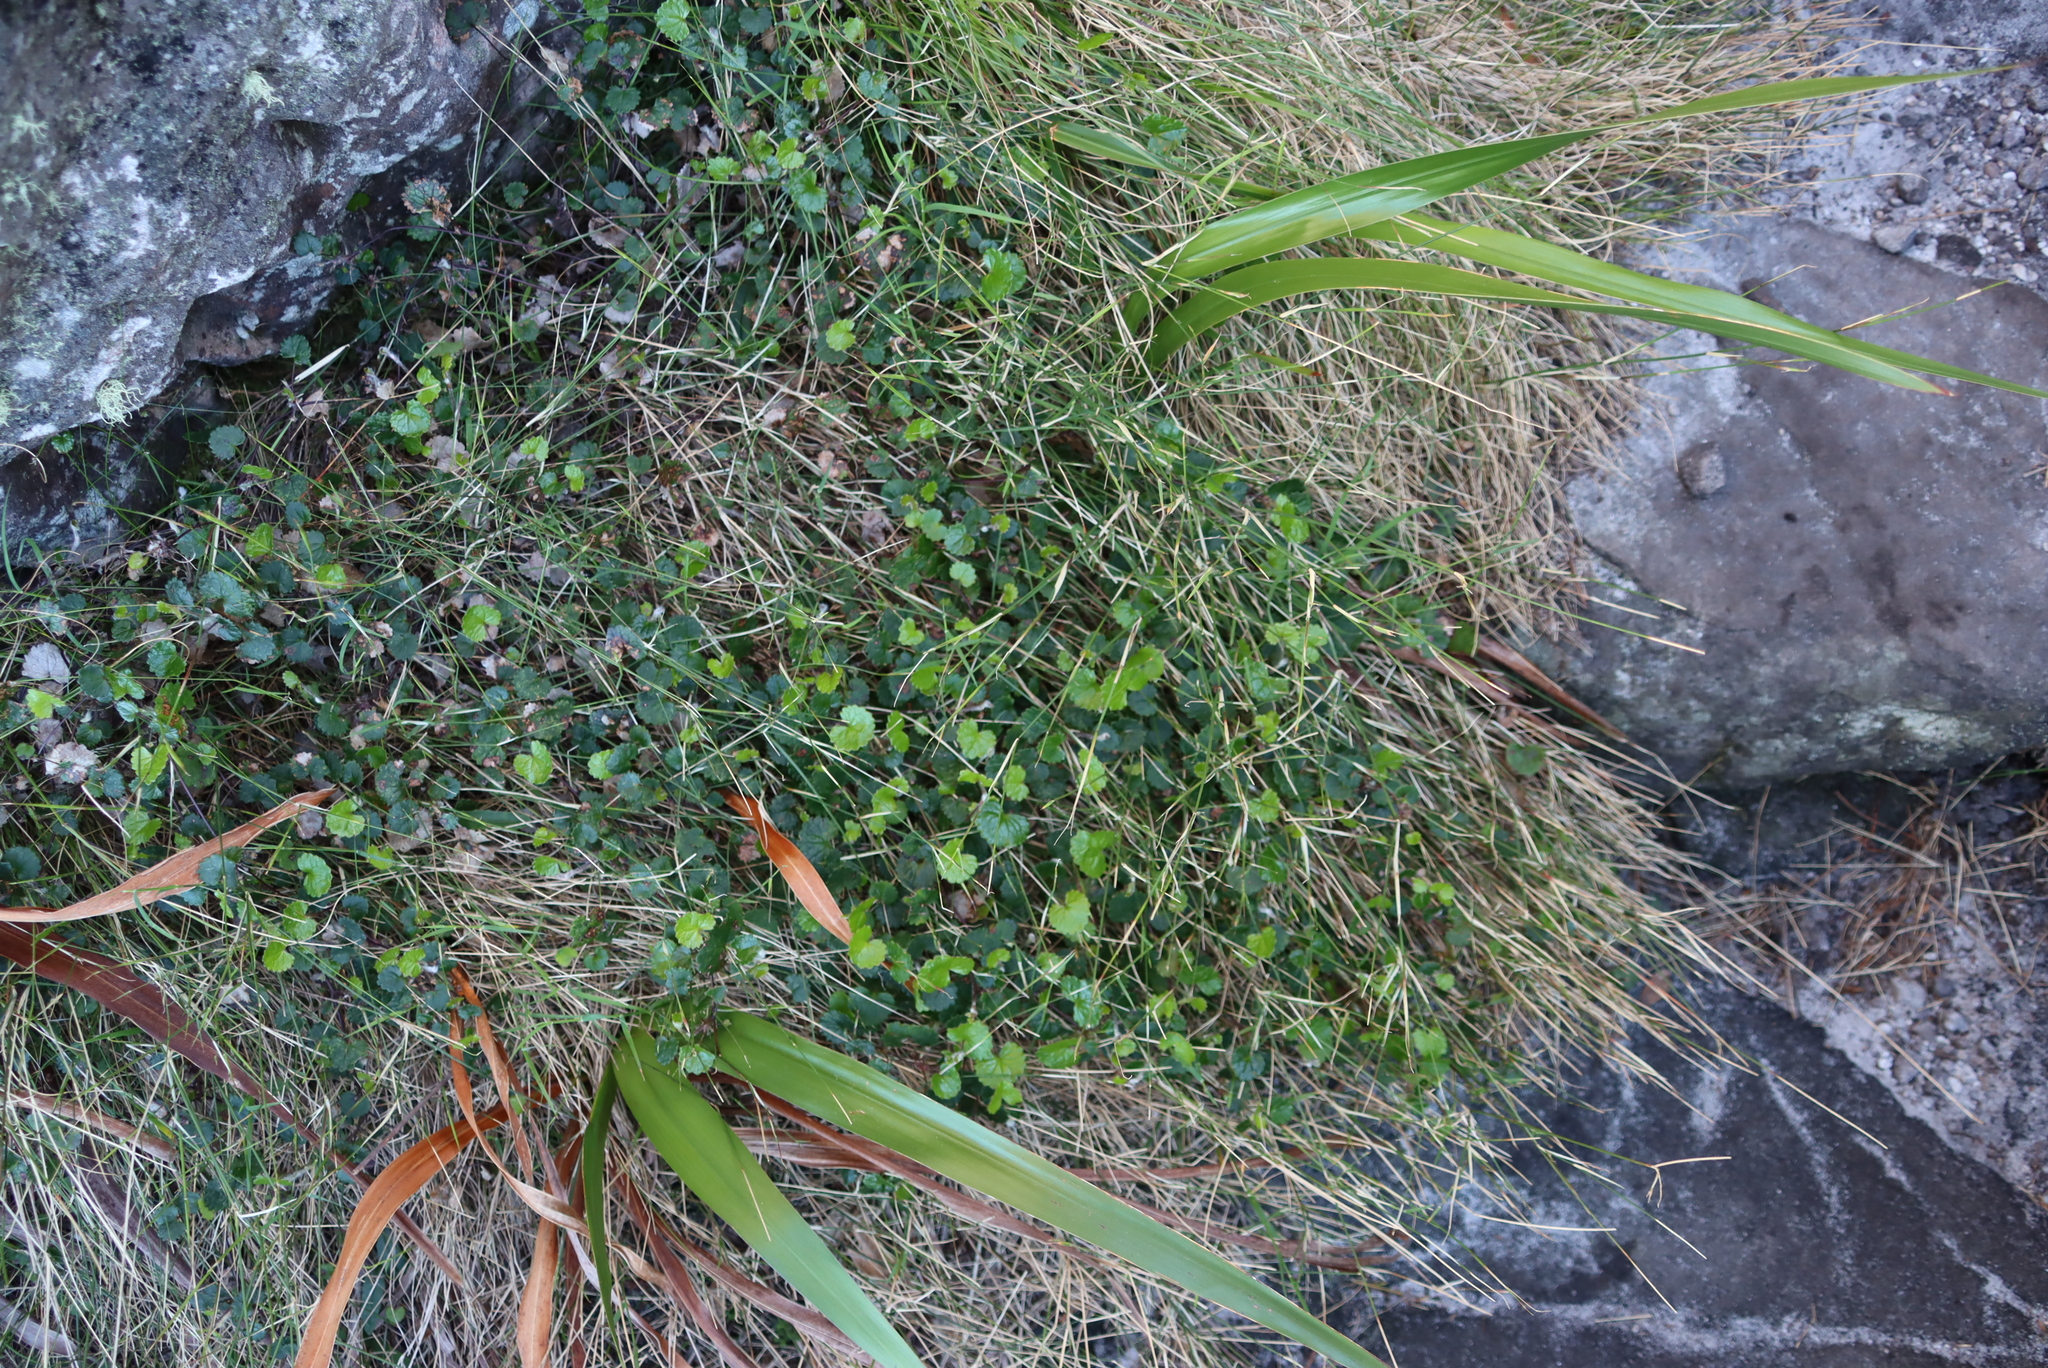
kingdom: Plantae
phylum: Tracheophyta
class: Magnoliopsida
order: Apiales
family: Apiaceae
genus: Centella
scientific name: Centella eriantha
